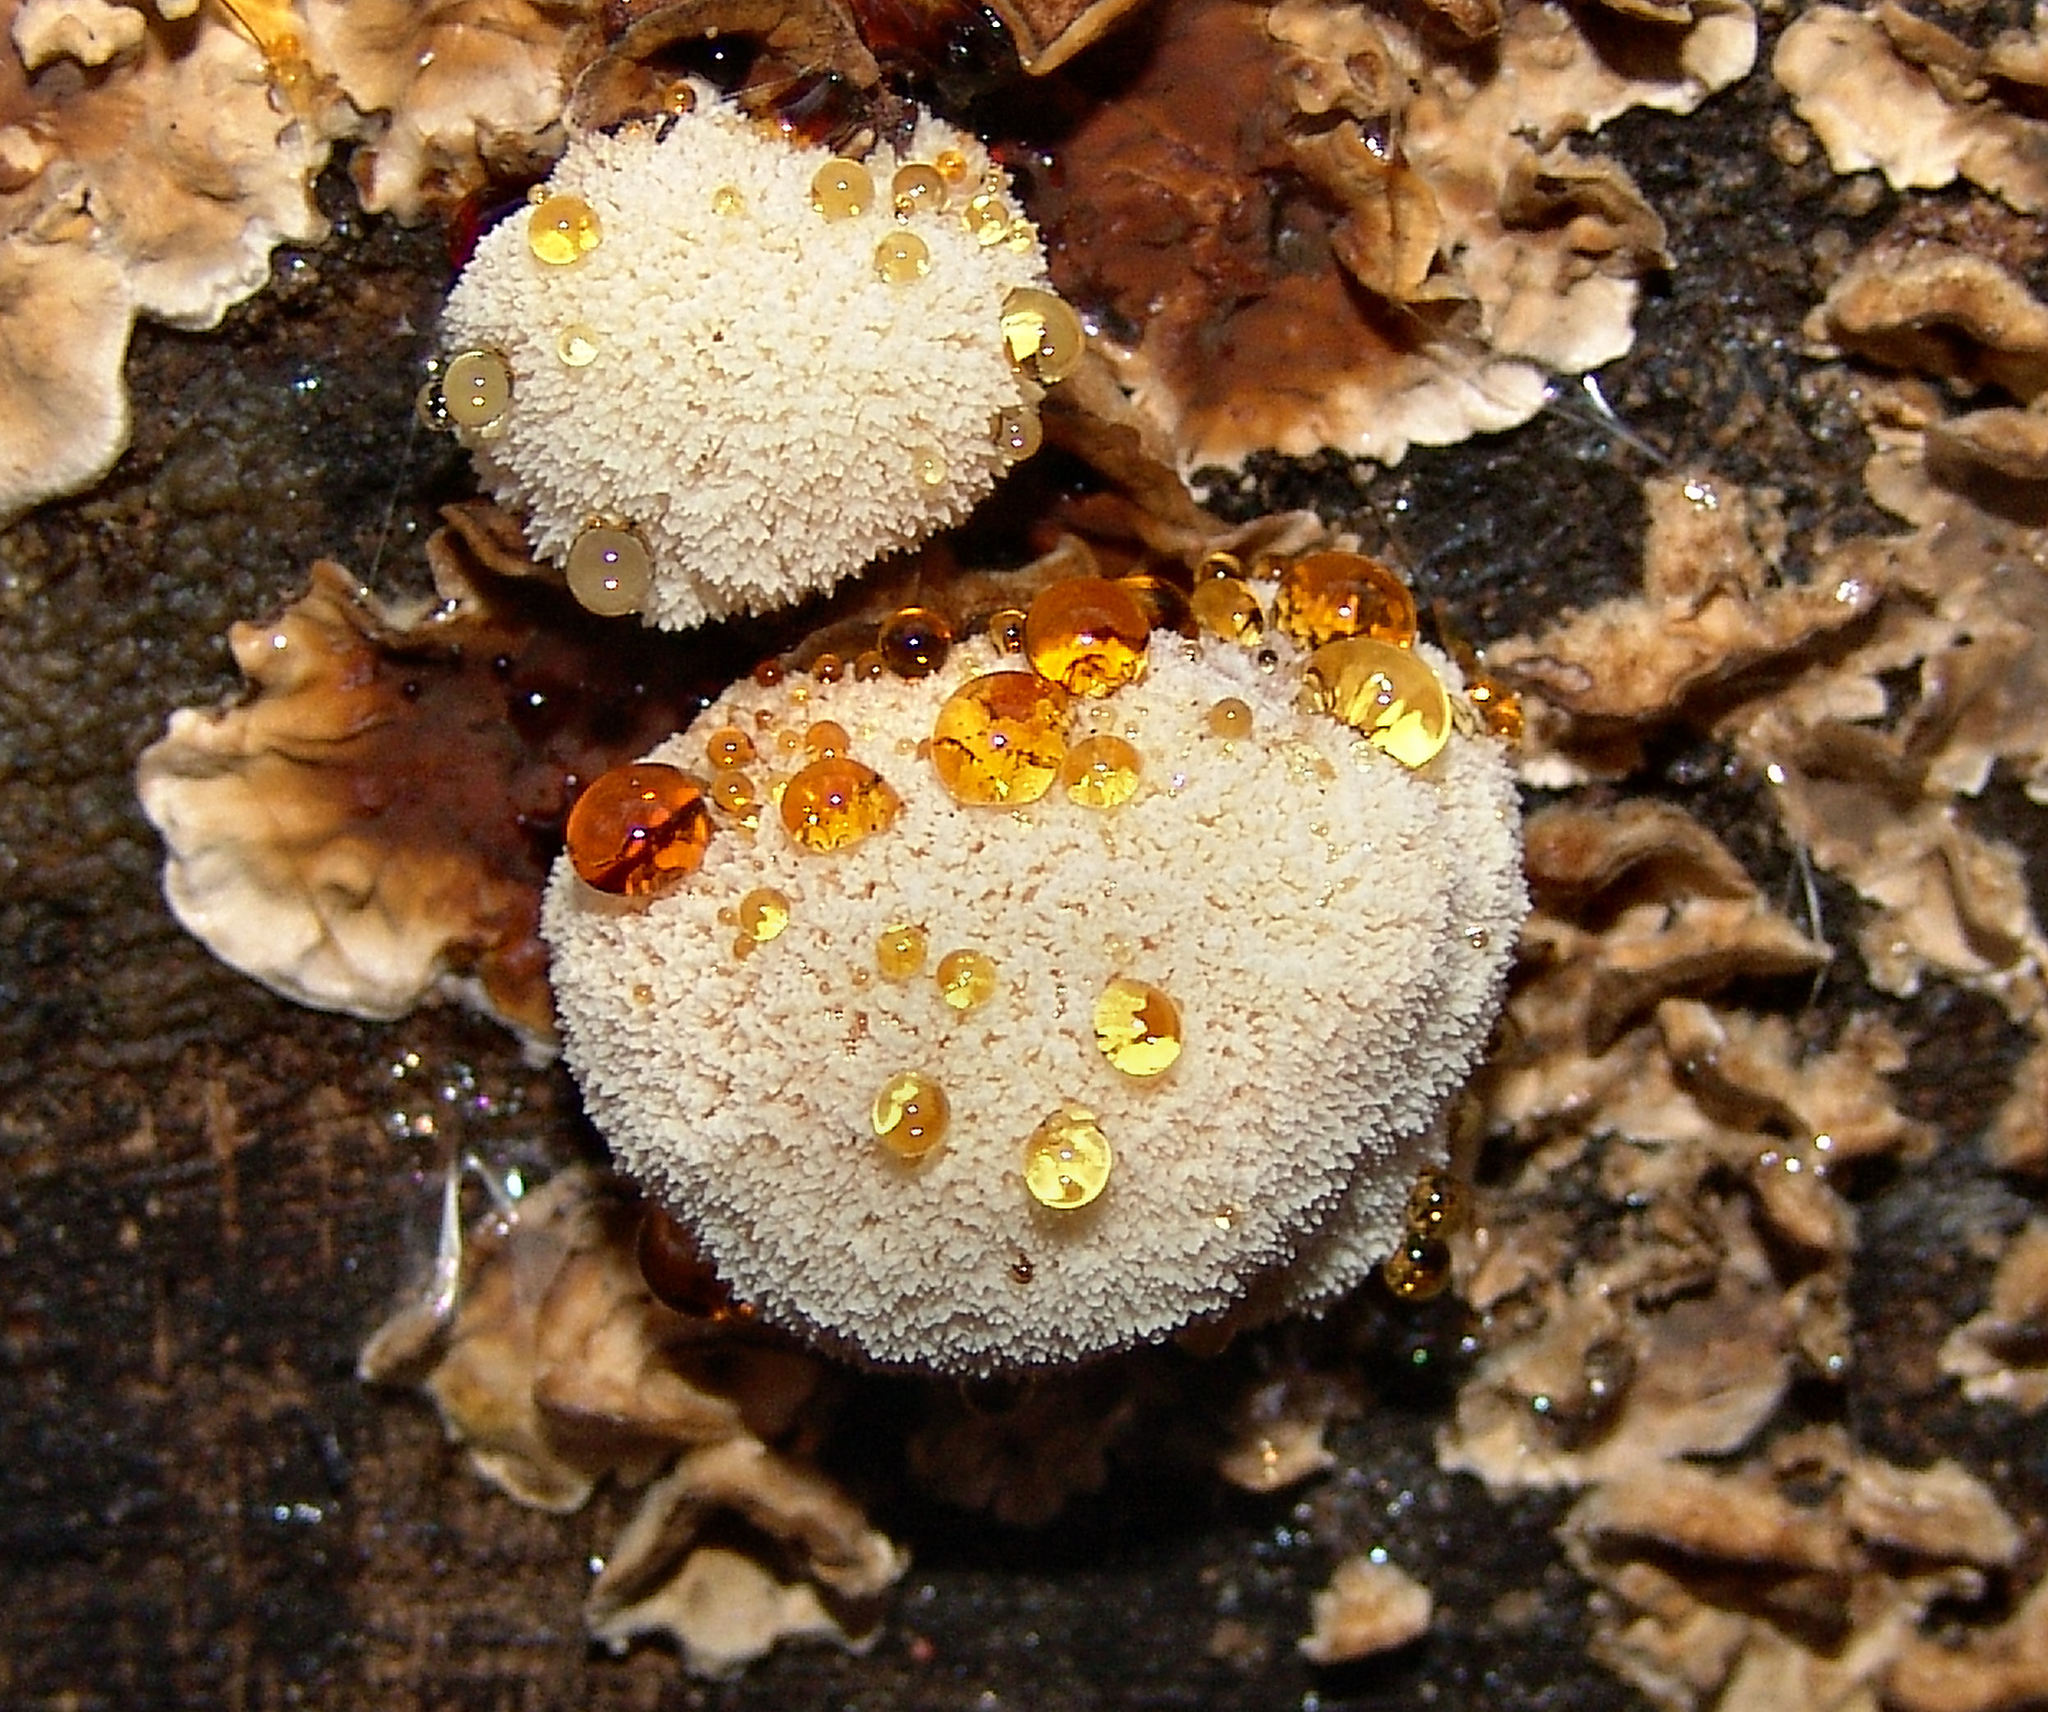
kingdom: Fungi
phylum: Basidiomycota
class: Agaricomycetes
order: Polyporales
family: Podoscyphaceae
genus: Abortiporus
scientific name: Abortiporus biennis
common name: Blushing rosette
